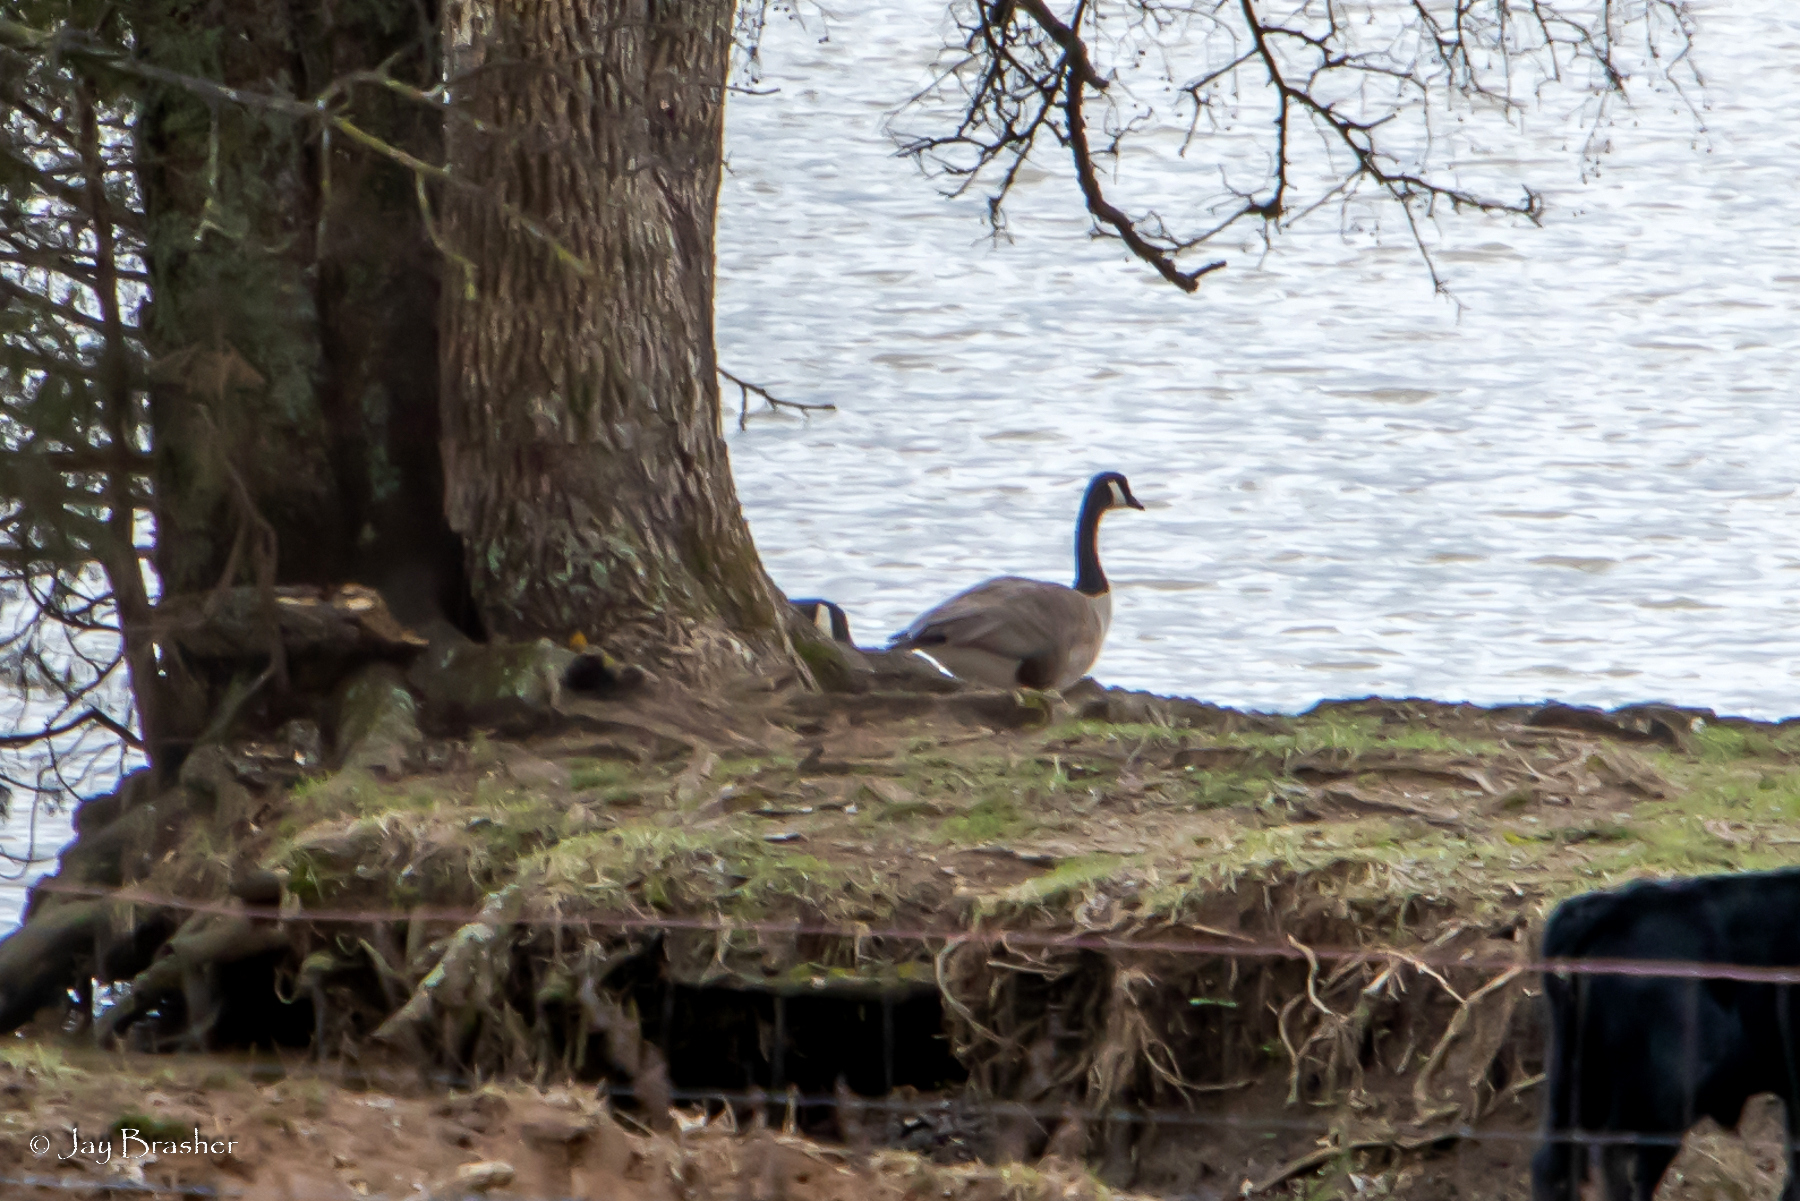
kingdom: Animalia
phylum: Chordata
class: Aves
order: Anseriformes
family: Anatidae
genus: Branta
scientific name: Branta canadensis
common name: Canada goose
